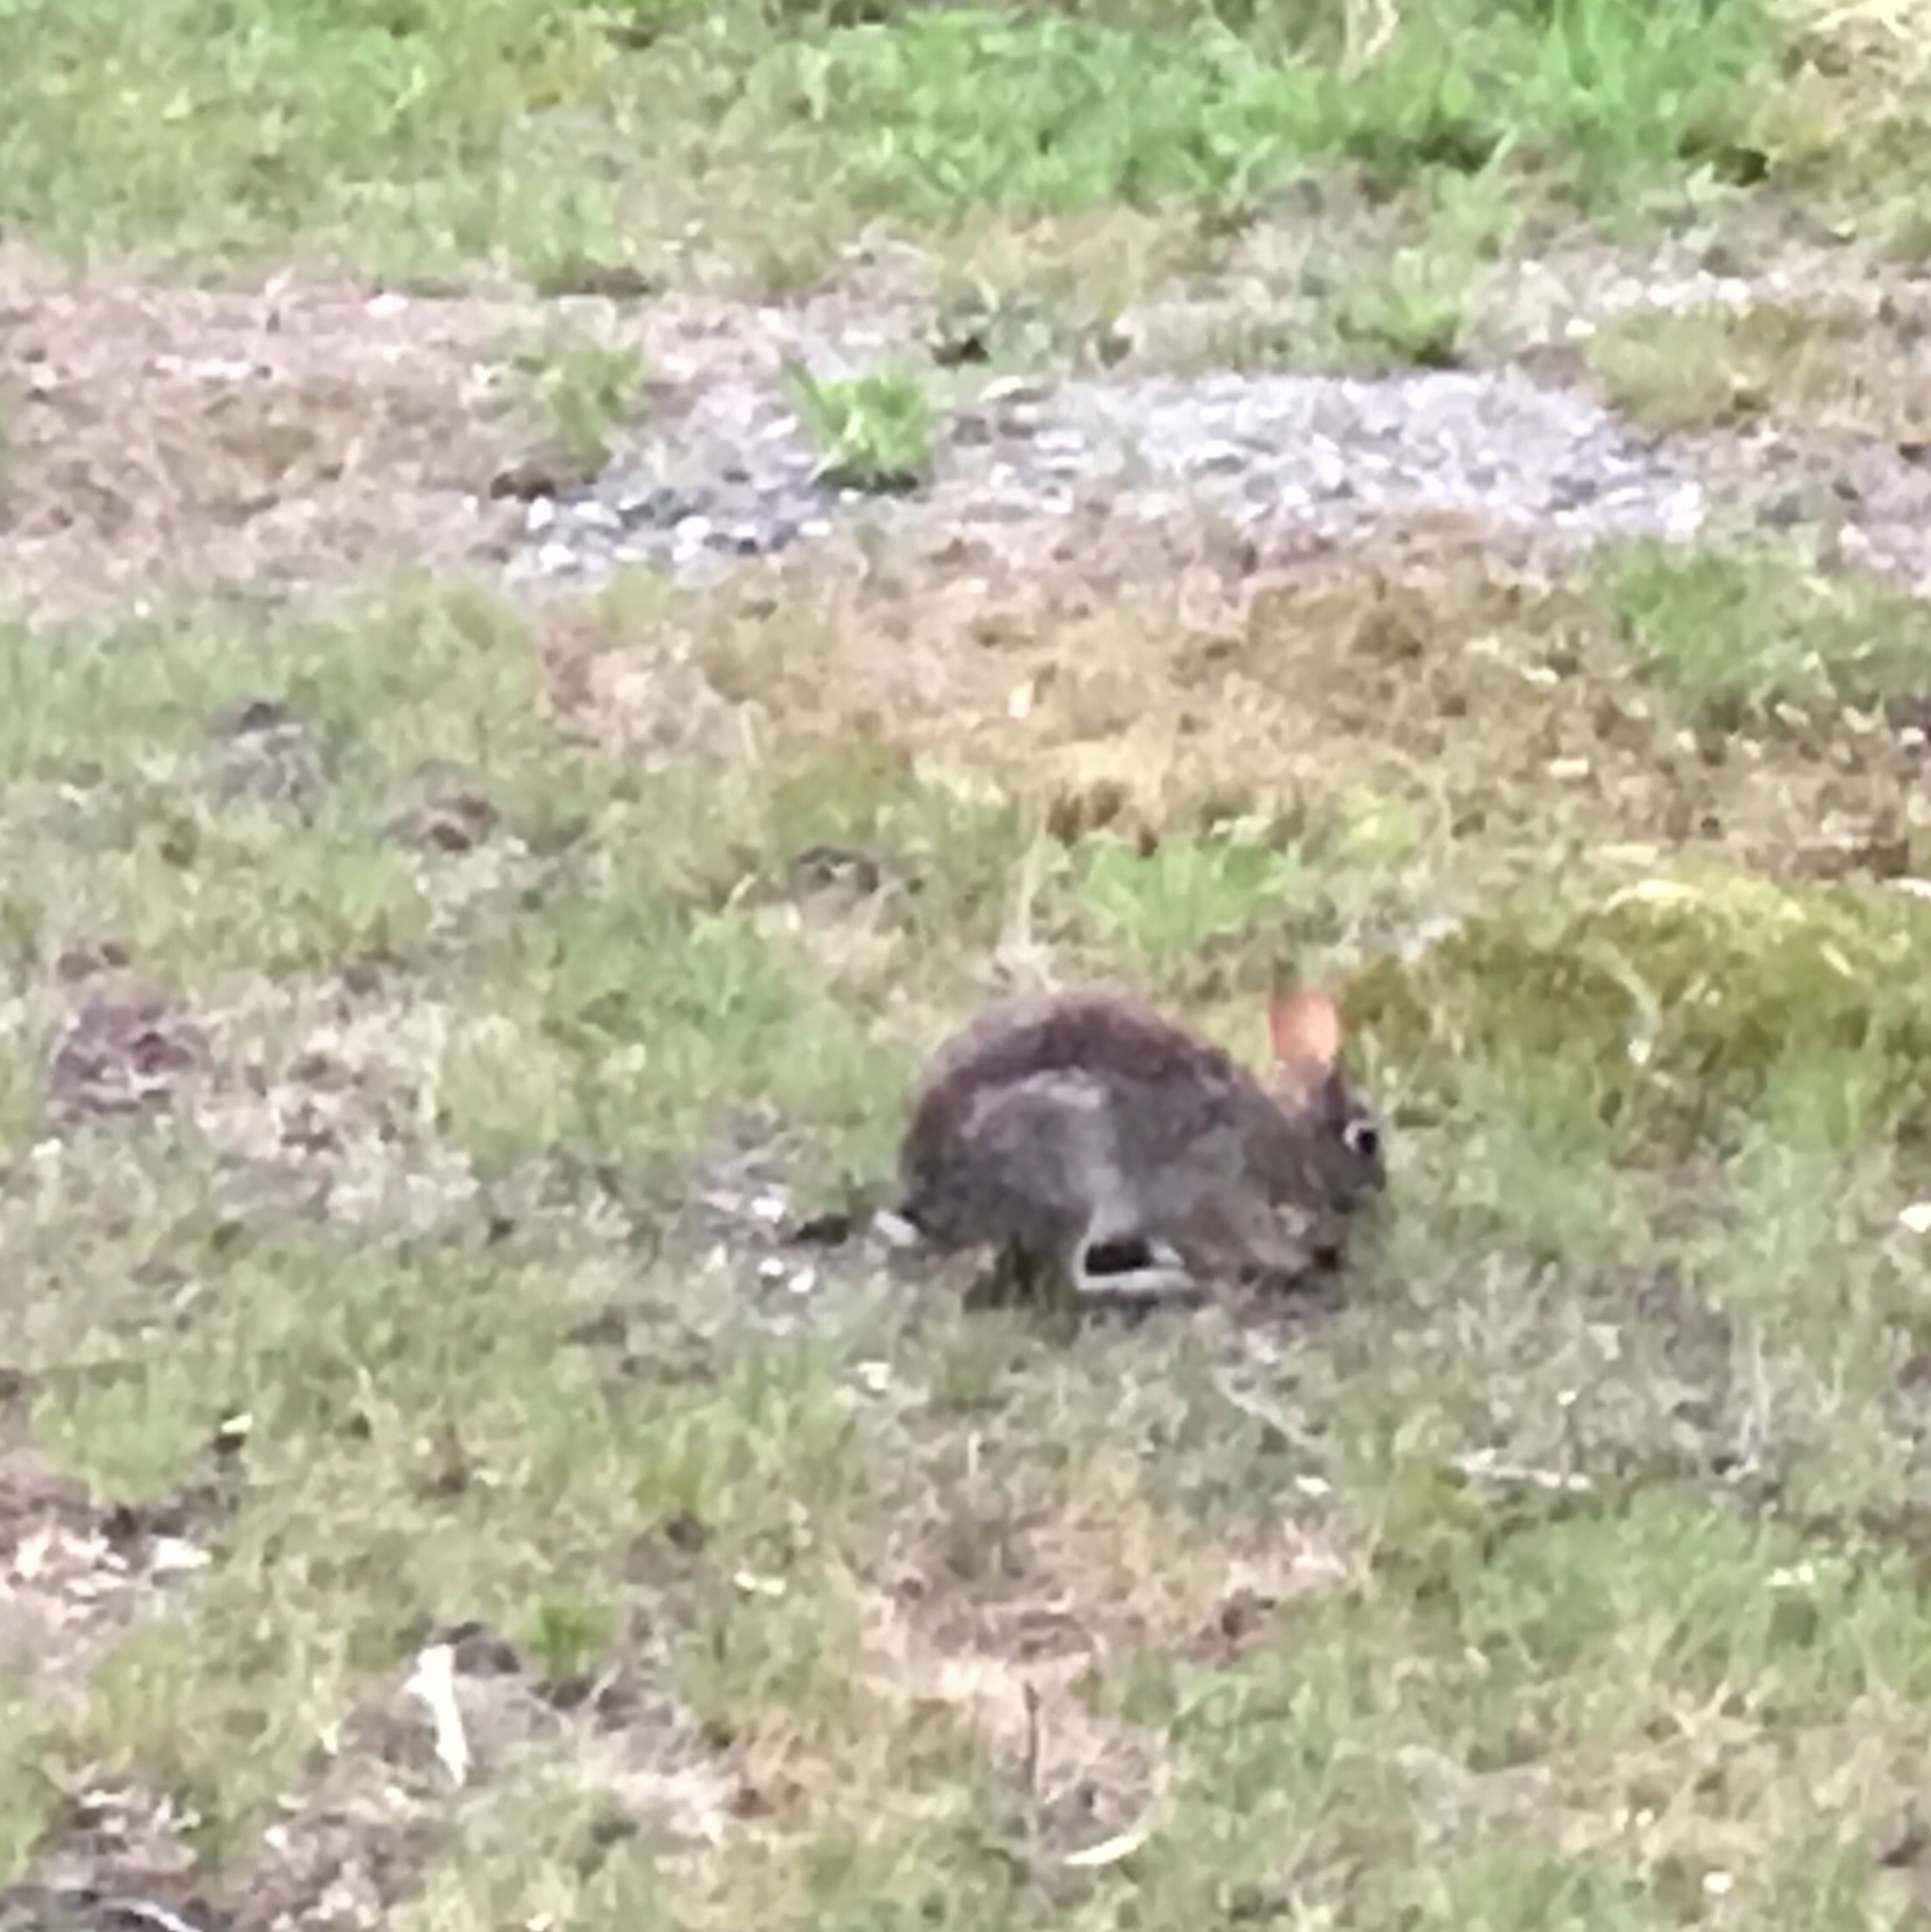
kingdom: Animalia
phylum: Chordata
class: Mammalia
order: Lagomorpha
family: Leporidae
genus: Sylvilagus
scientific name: Sylvilagus floridanus
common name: Eastern cottontail
